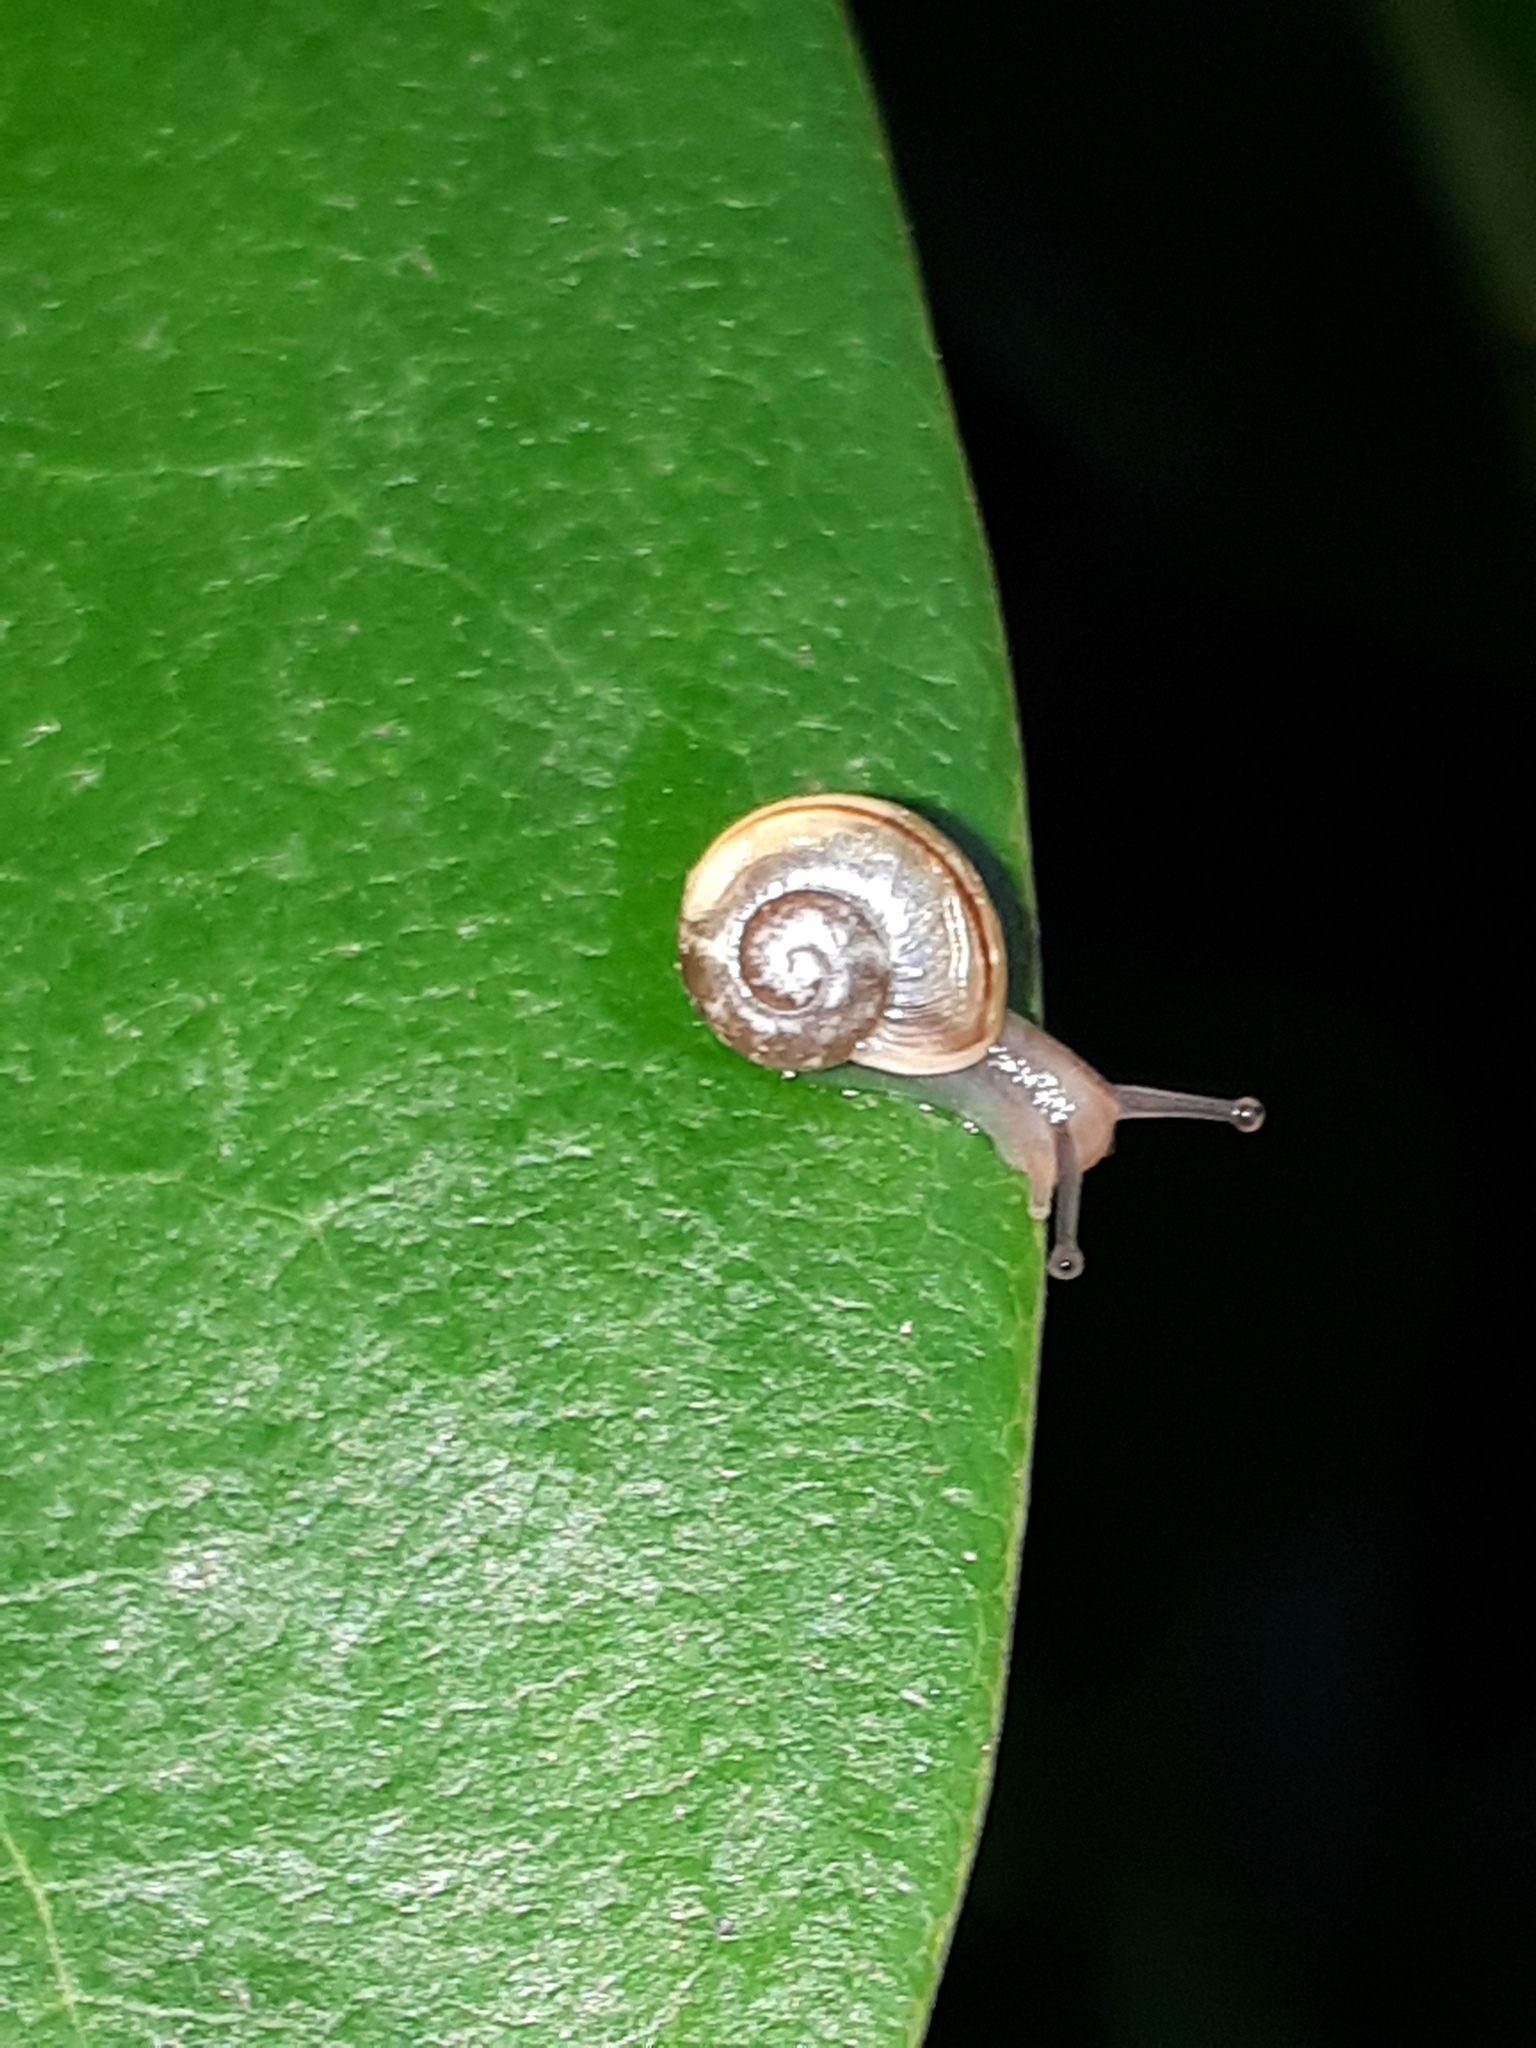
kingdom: Animalia
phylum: Mollusca
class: Gastropoda
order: Stylommatophora
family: Helicidae
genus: Cepaea
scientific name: Cepaea
